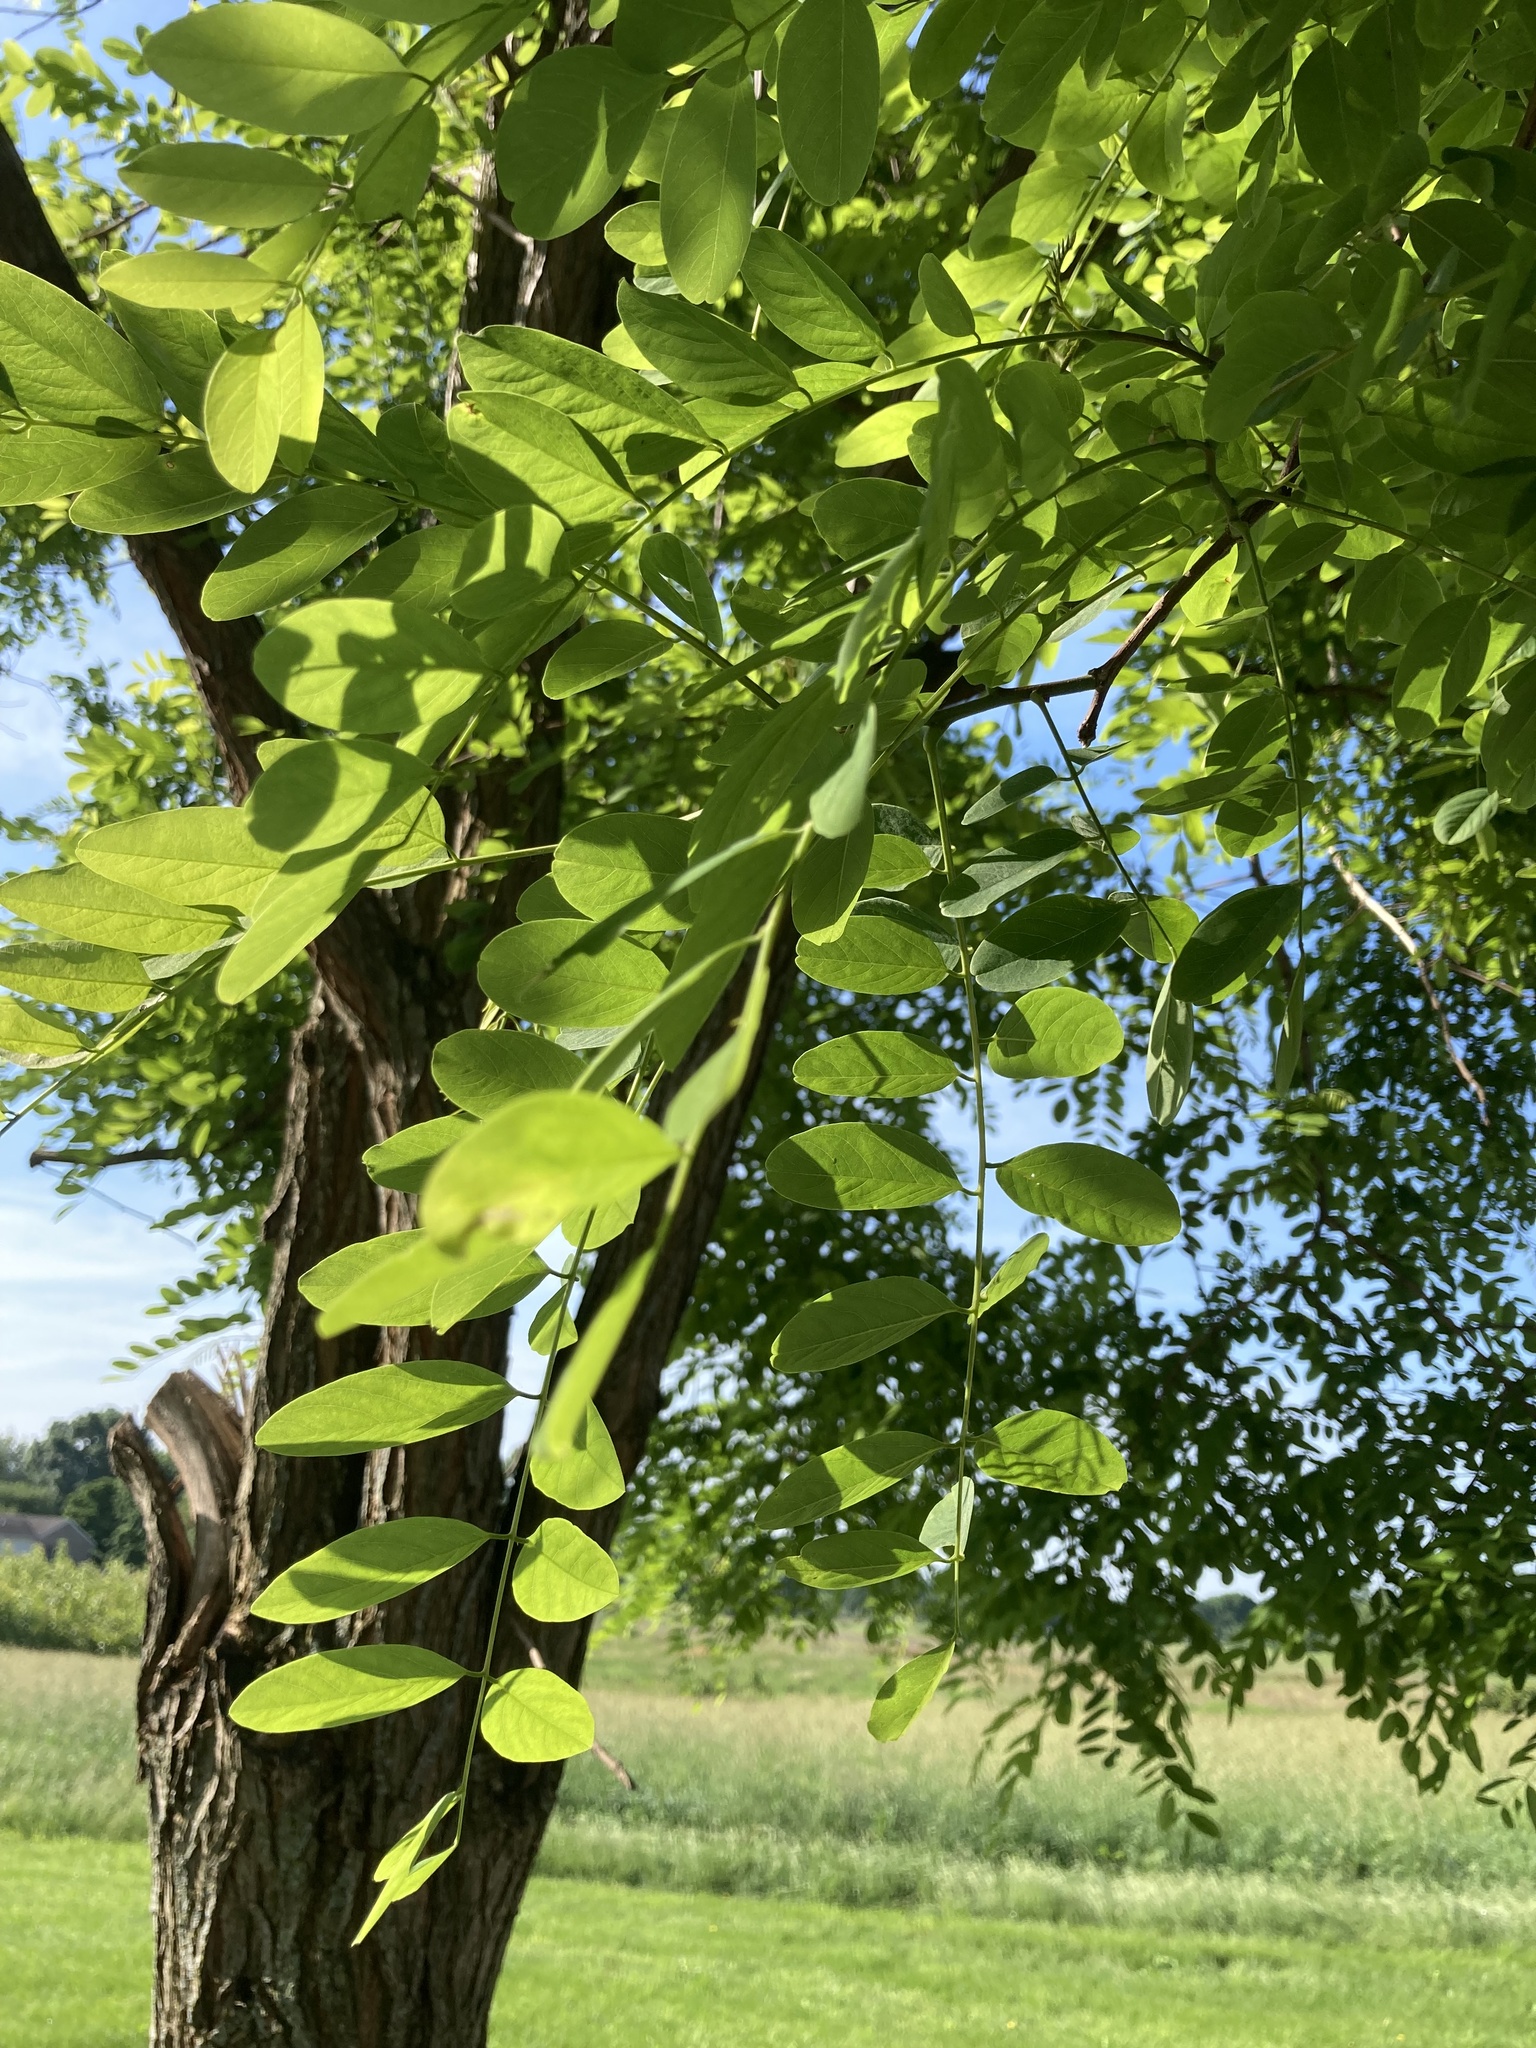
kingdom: Plantae
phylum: Tracheophyta
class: Magnoliopsida
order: Fabales
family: Fabaceae
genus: Robinia
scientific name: Robinia pseudoacacia
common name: Black locust
